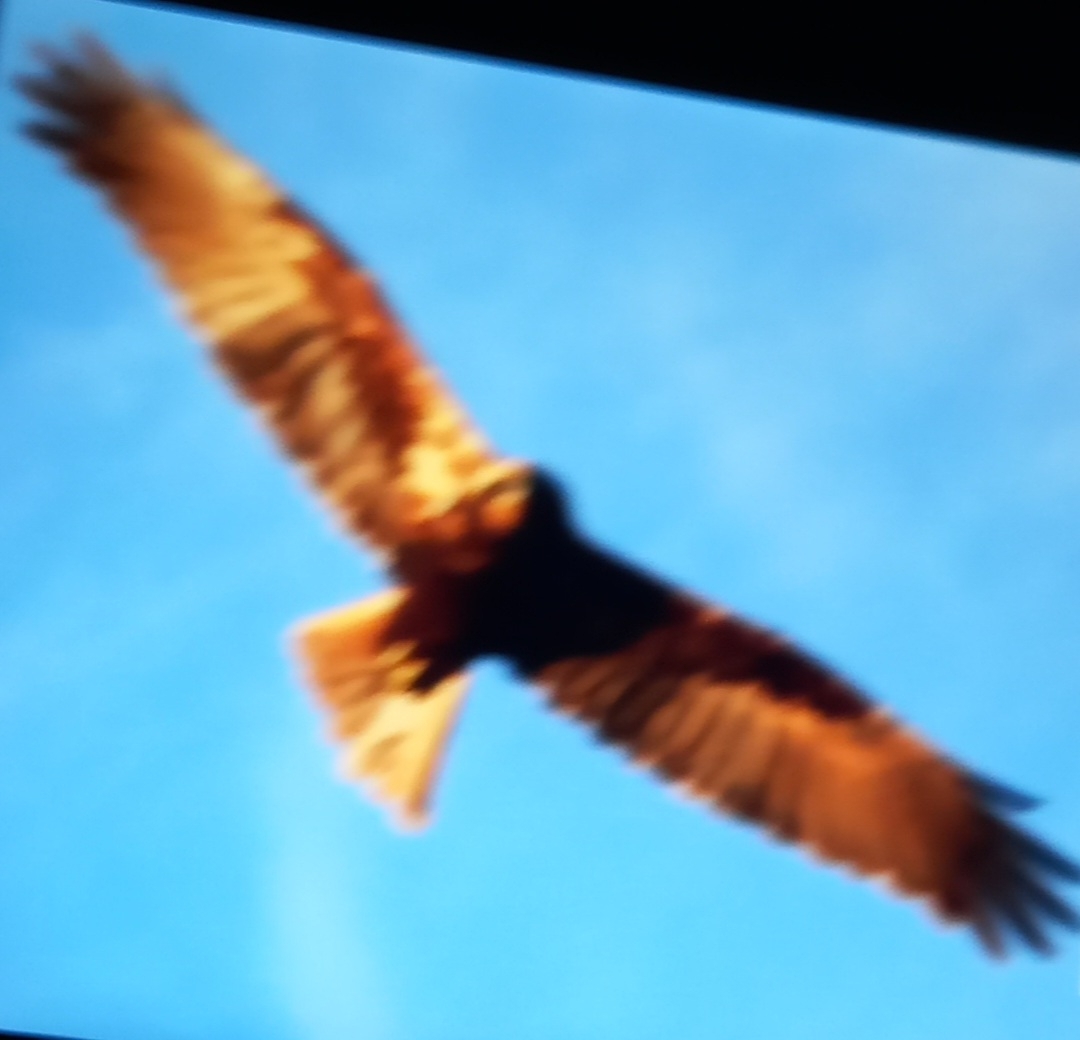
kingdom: Animalia
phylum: Chordata
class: Aves
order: Accipitriformes
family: Accipitridae
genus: Circus
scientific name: Circus aeruginosus
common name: Western marsh harrier
